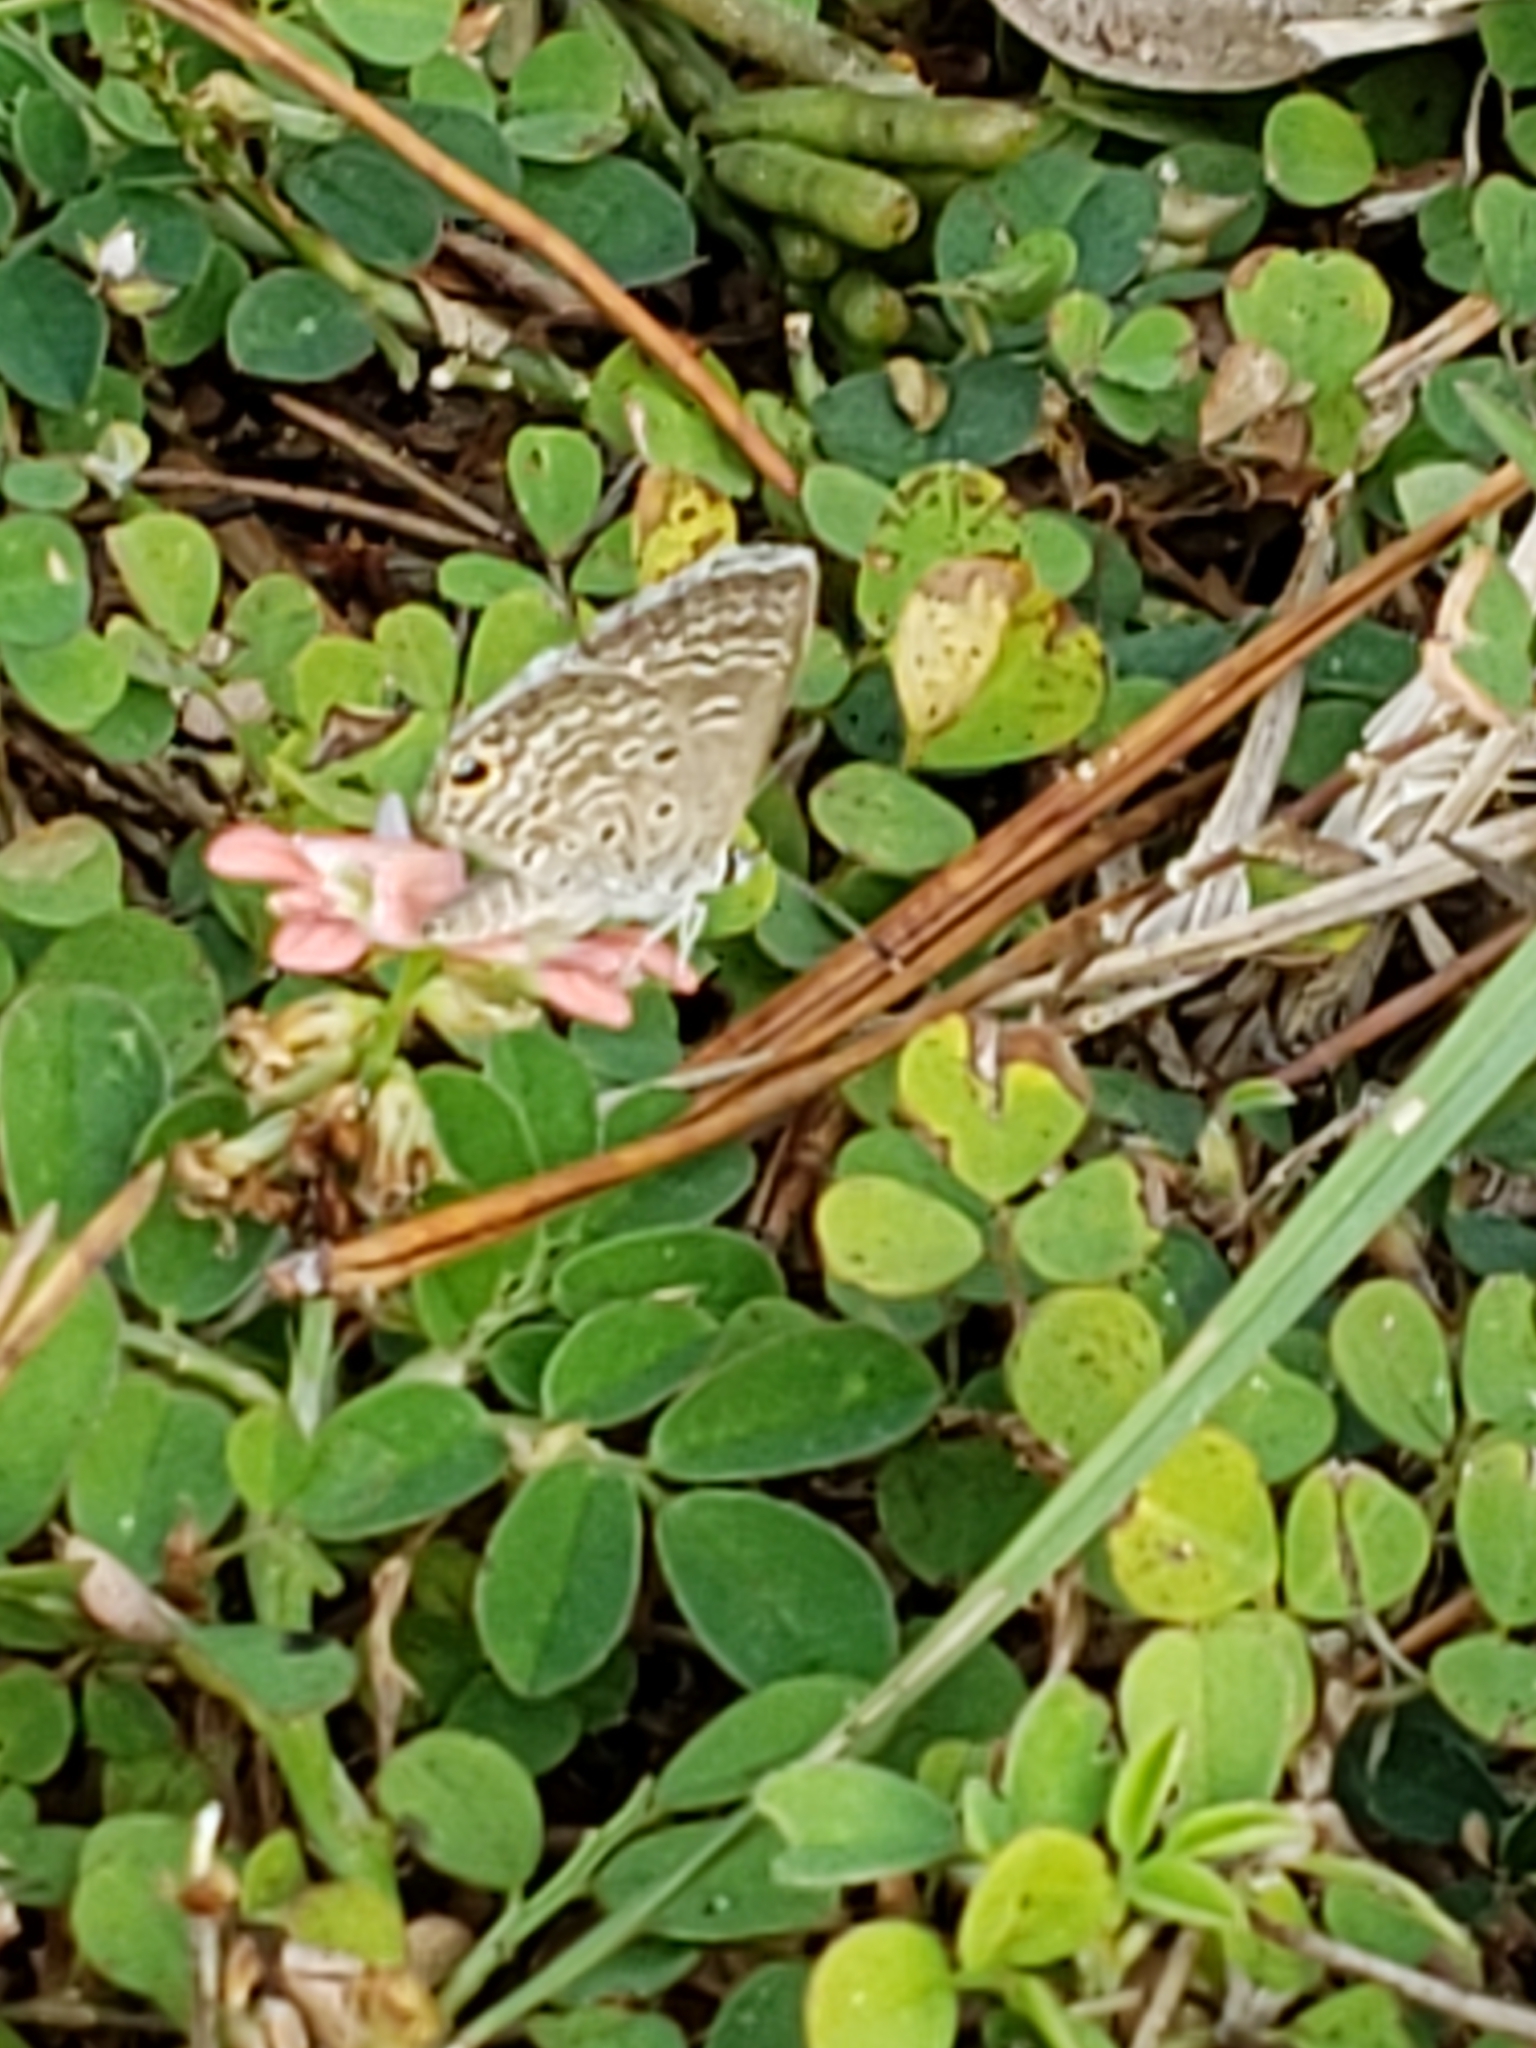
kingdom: Animalia
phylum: Arthropoda
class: Insecta
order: Lepidoptera
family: Lycaenidae
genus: Hemiargus
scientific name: Hemiargus ceraunus
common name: Ceraunus blue
